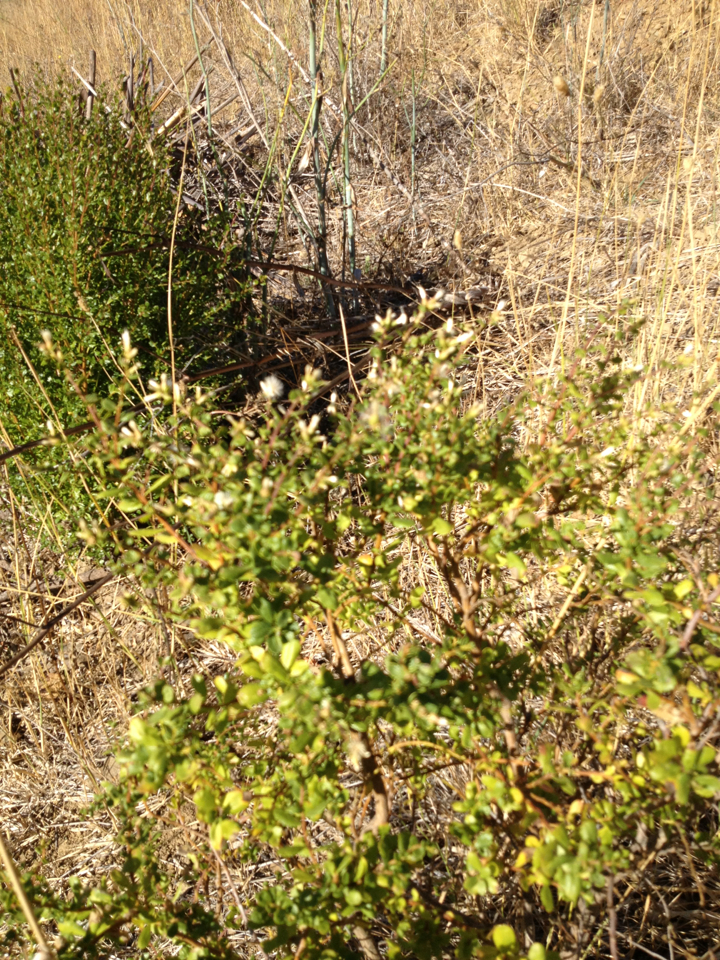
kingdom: Plantae
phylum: Tracheophyta
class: Magnoliopsida
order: Asterales
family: Asteraceae
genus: Baccharis
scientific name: Baccharis pilularis
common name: Coyotebrush
